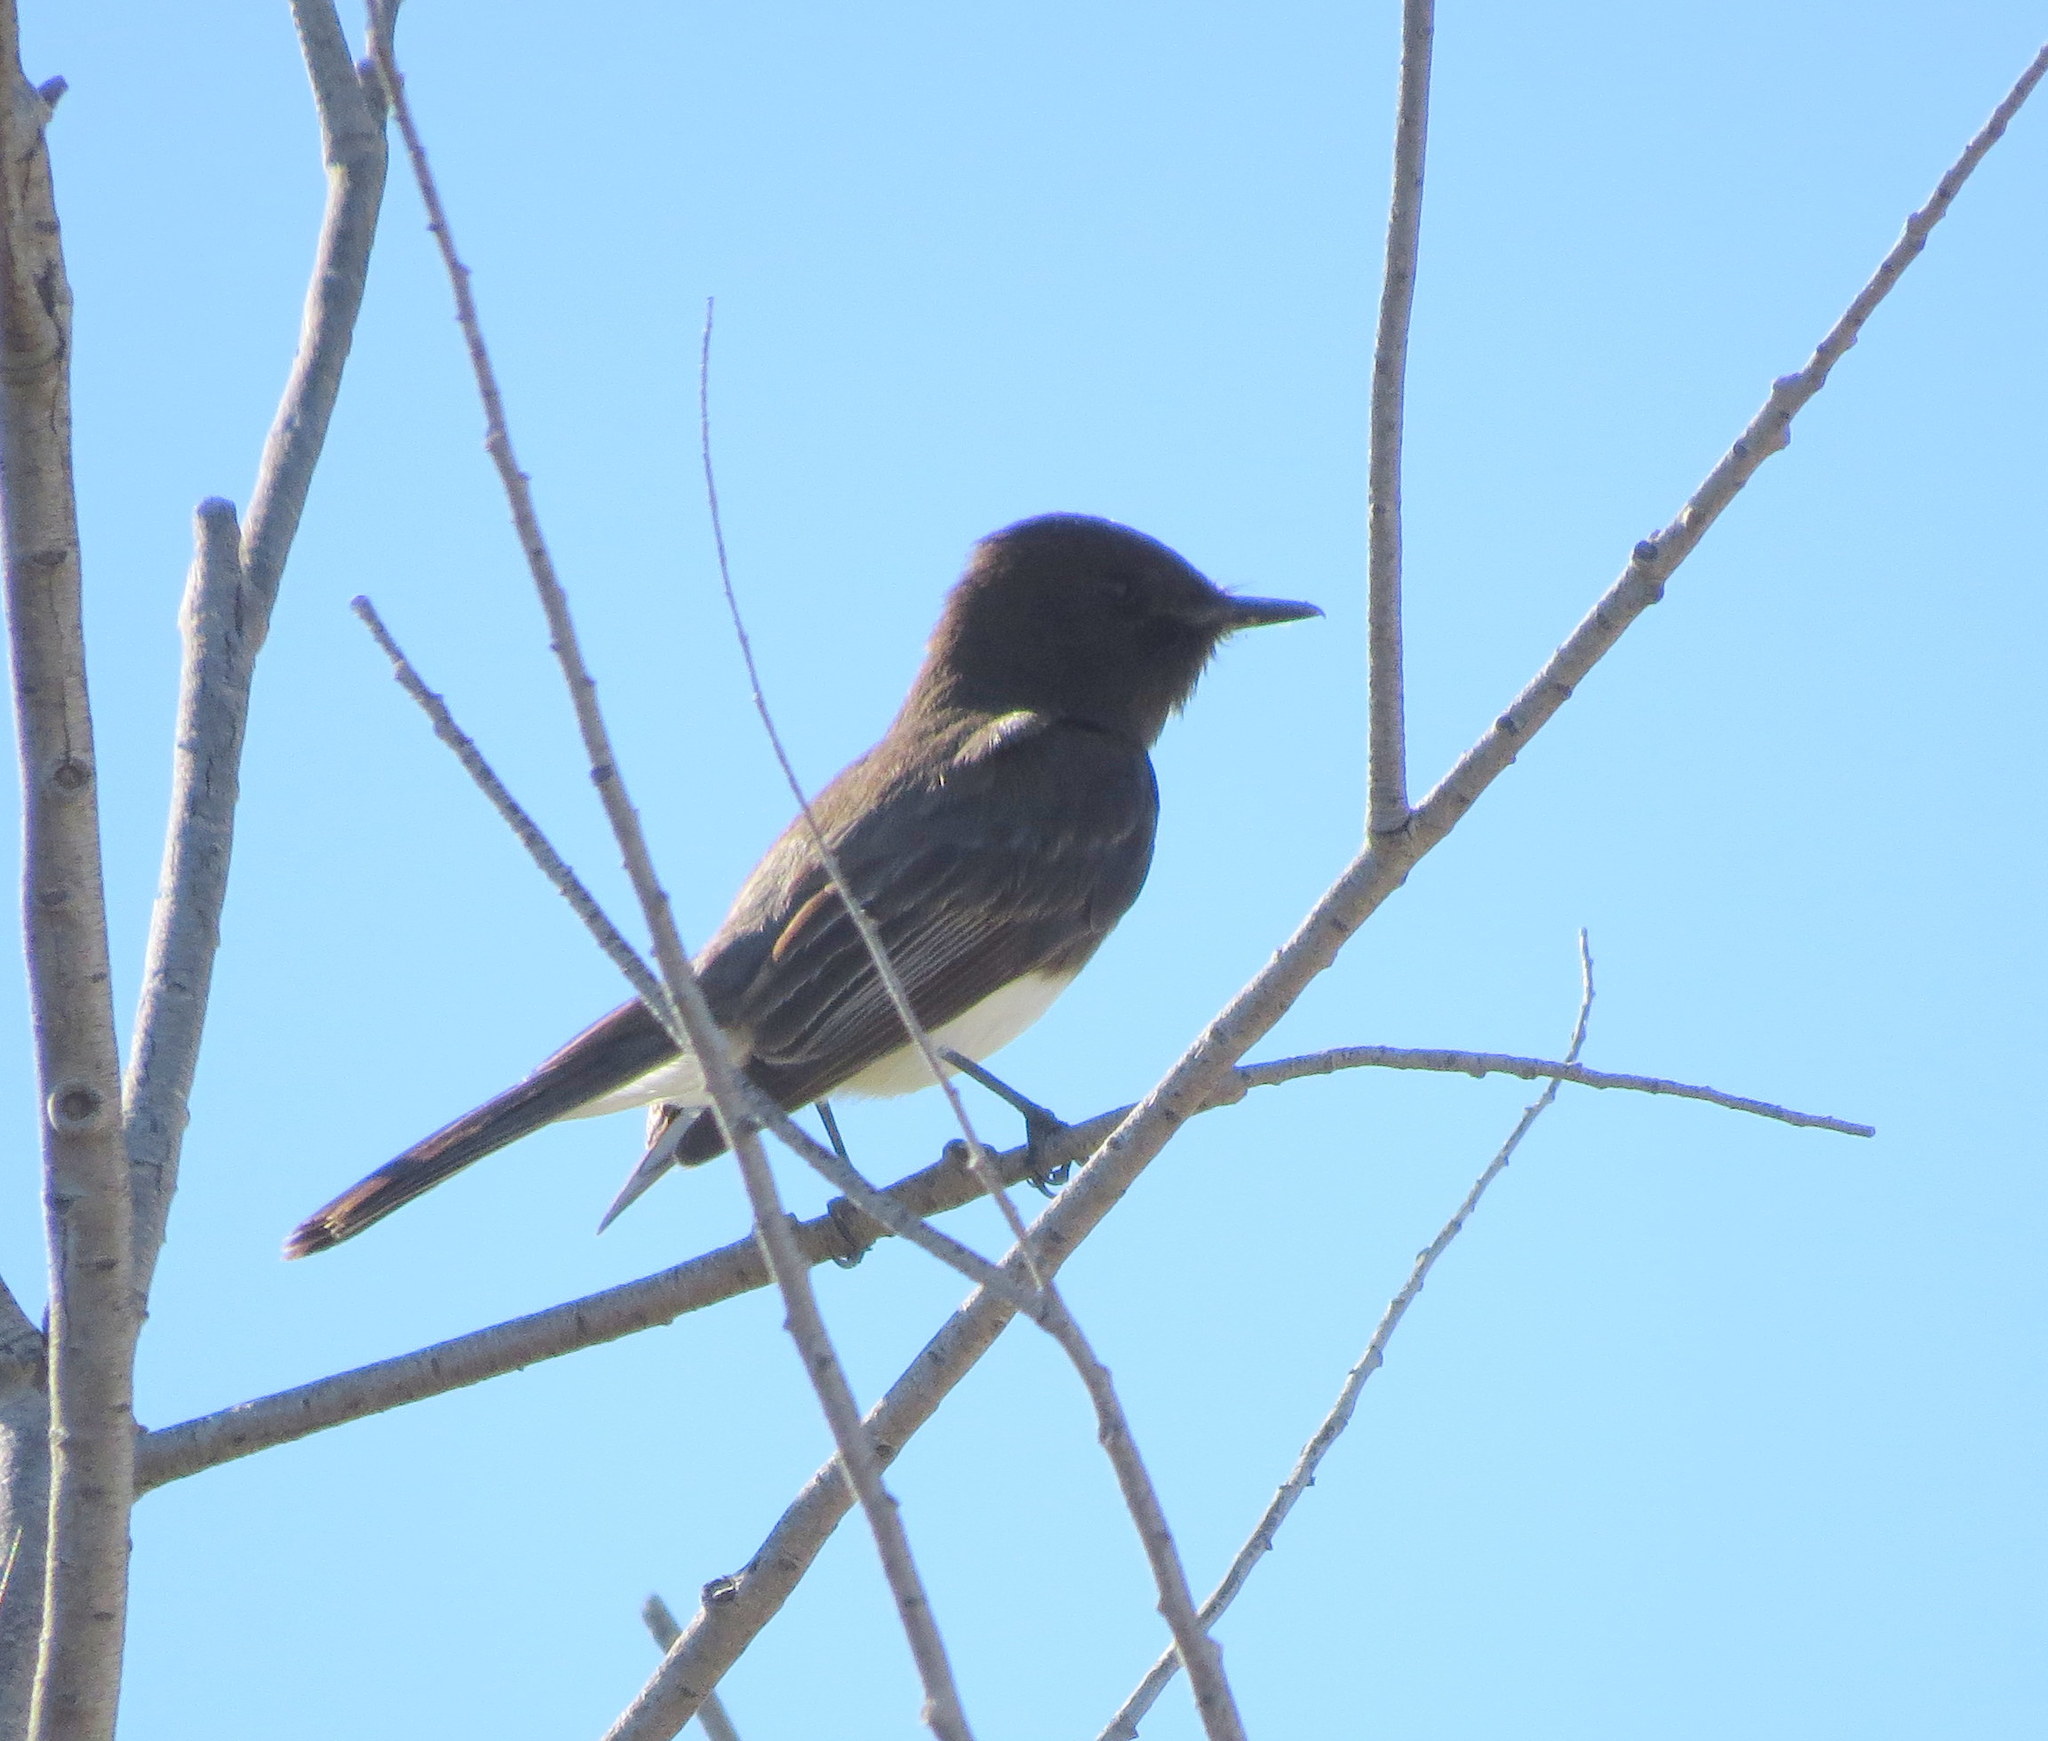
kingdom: Animalia
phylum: Chordata
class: Aves
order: Passeriformes
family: Tyrannidae
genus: Sayornis
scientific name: Sayornis nigricans
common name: Black phoebe
